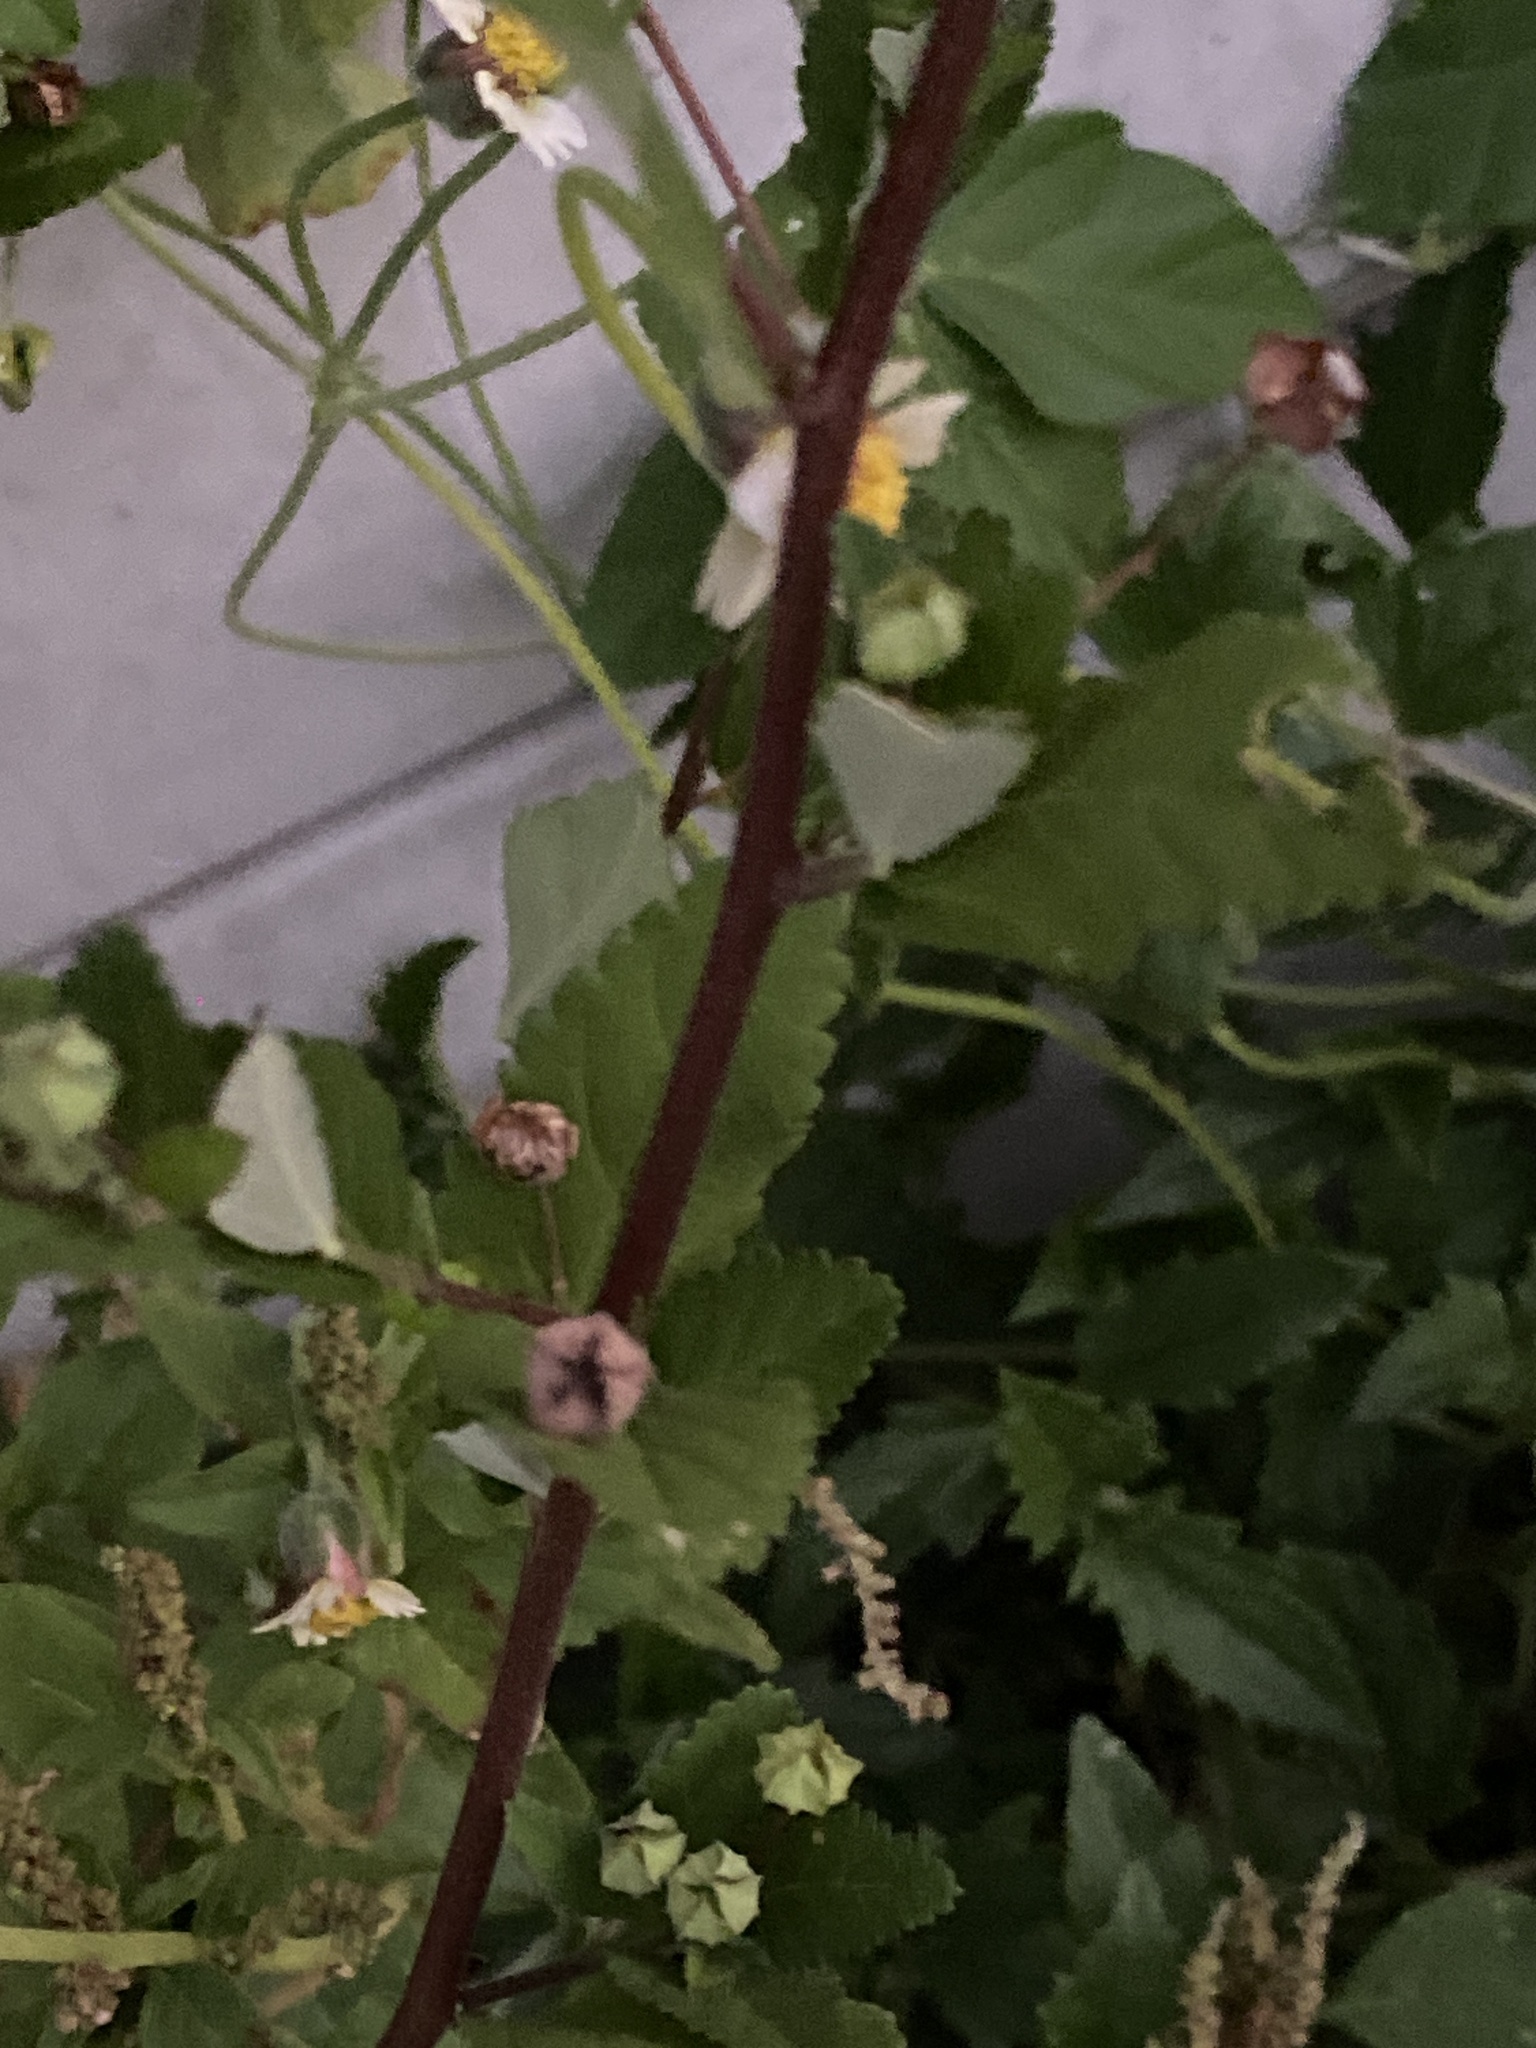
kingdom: Plantae
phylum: Tracheophyta
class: Magnoliopsida
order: Malvales
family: Malvaceae
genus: Sida
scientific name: Sida rhombifolia
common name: Queensland-hemp
